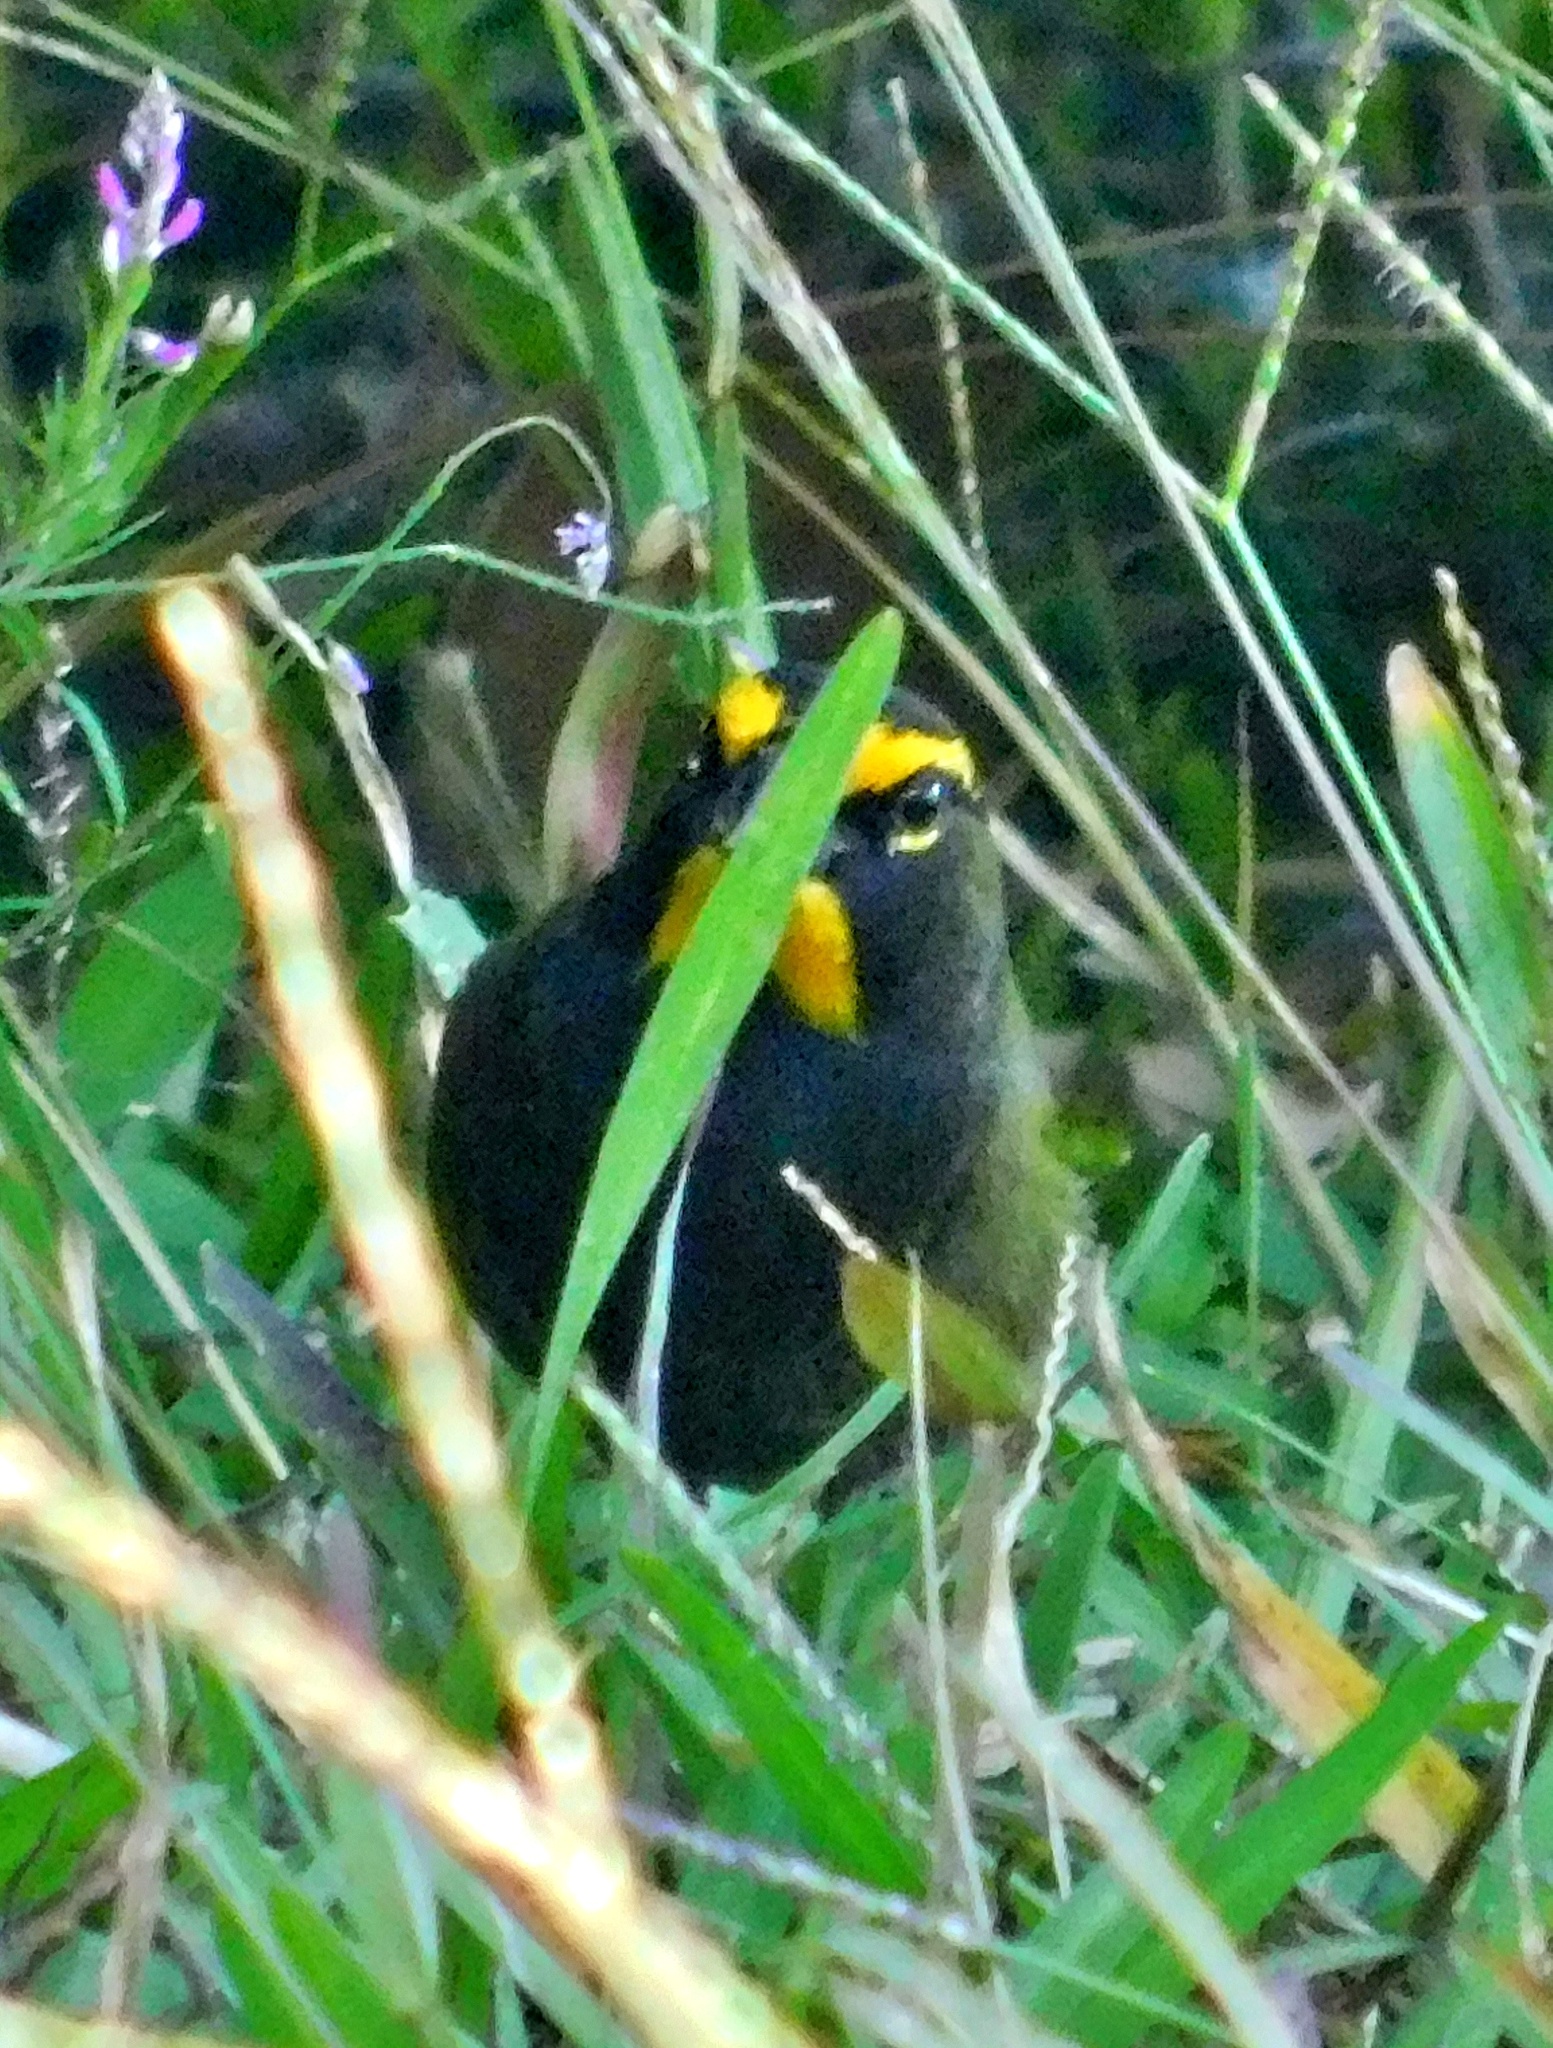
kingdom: Animalia
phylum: Chordata
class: Aves
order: Passeriformes
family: Thraupidae
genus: Tiaris
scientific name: Tiaris olivaceus
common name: Yellow-faced grassquit
